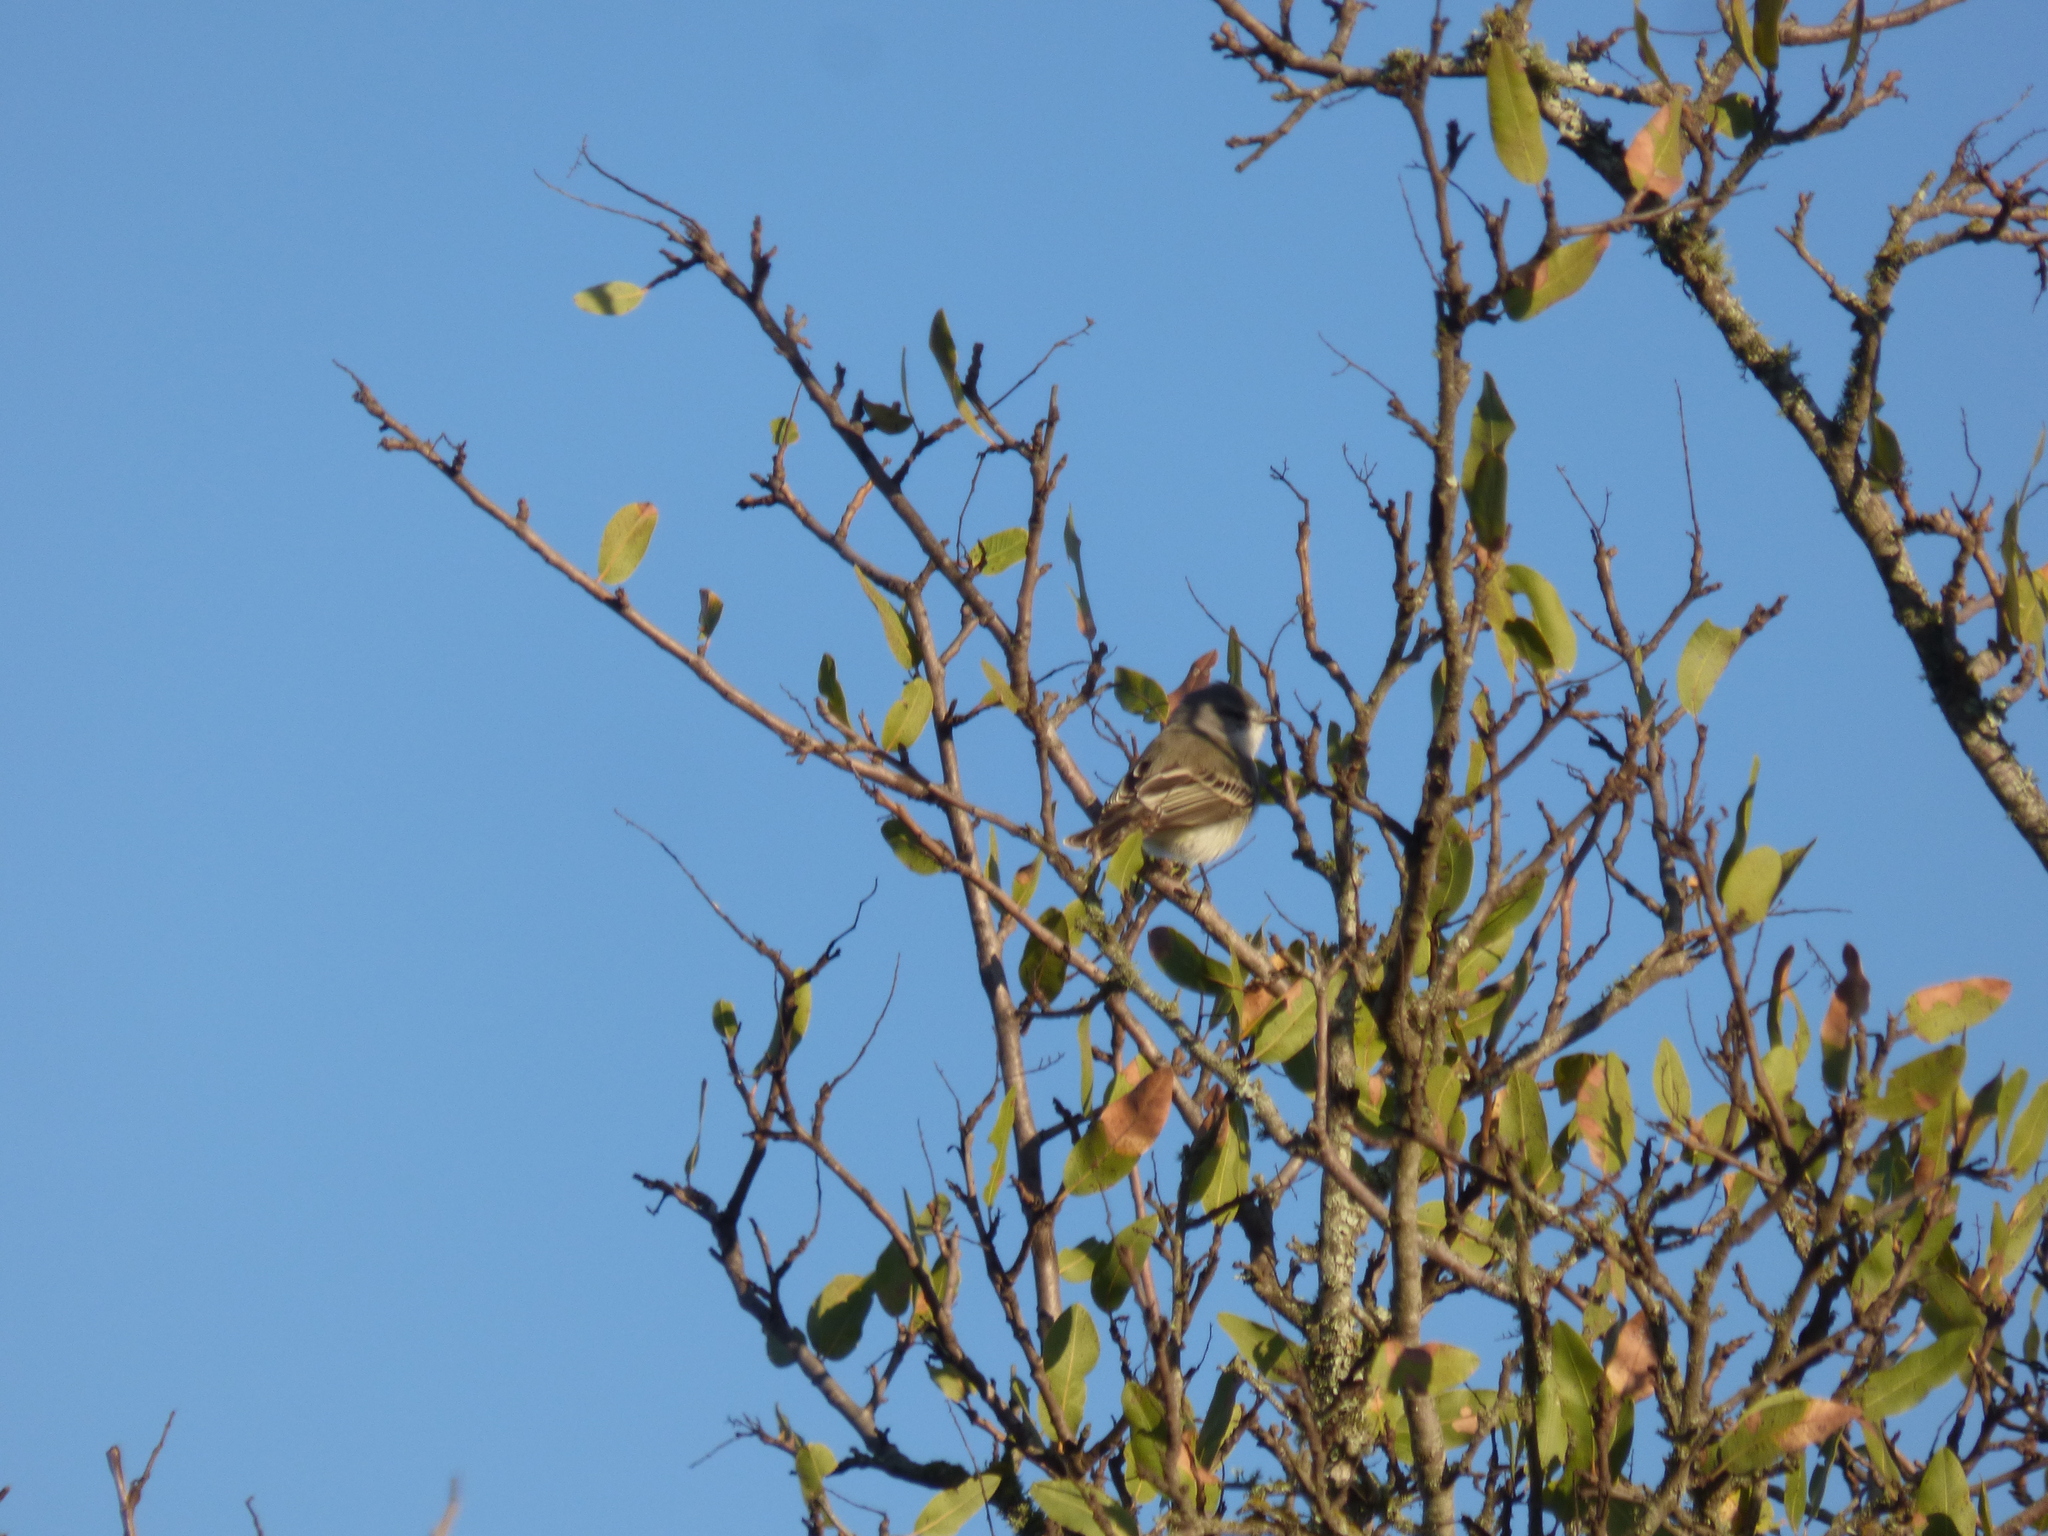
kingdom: Animalia
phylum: Chordata
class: Aves
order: Passeriformes
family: Tyrannidae
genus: Suiriri
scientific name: Suiriri suiriri
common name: Suiriri flycatcher
